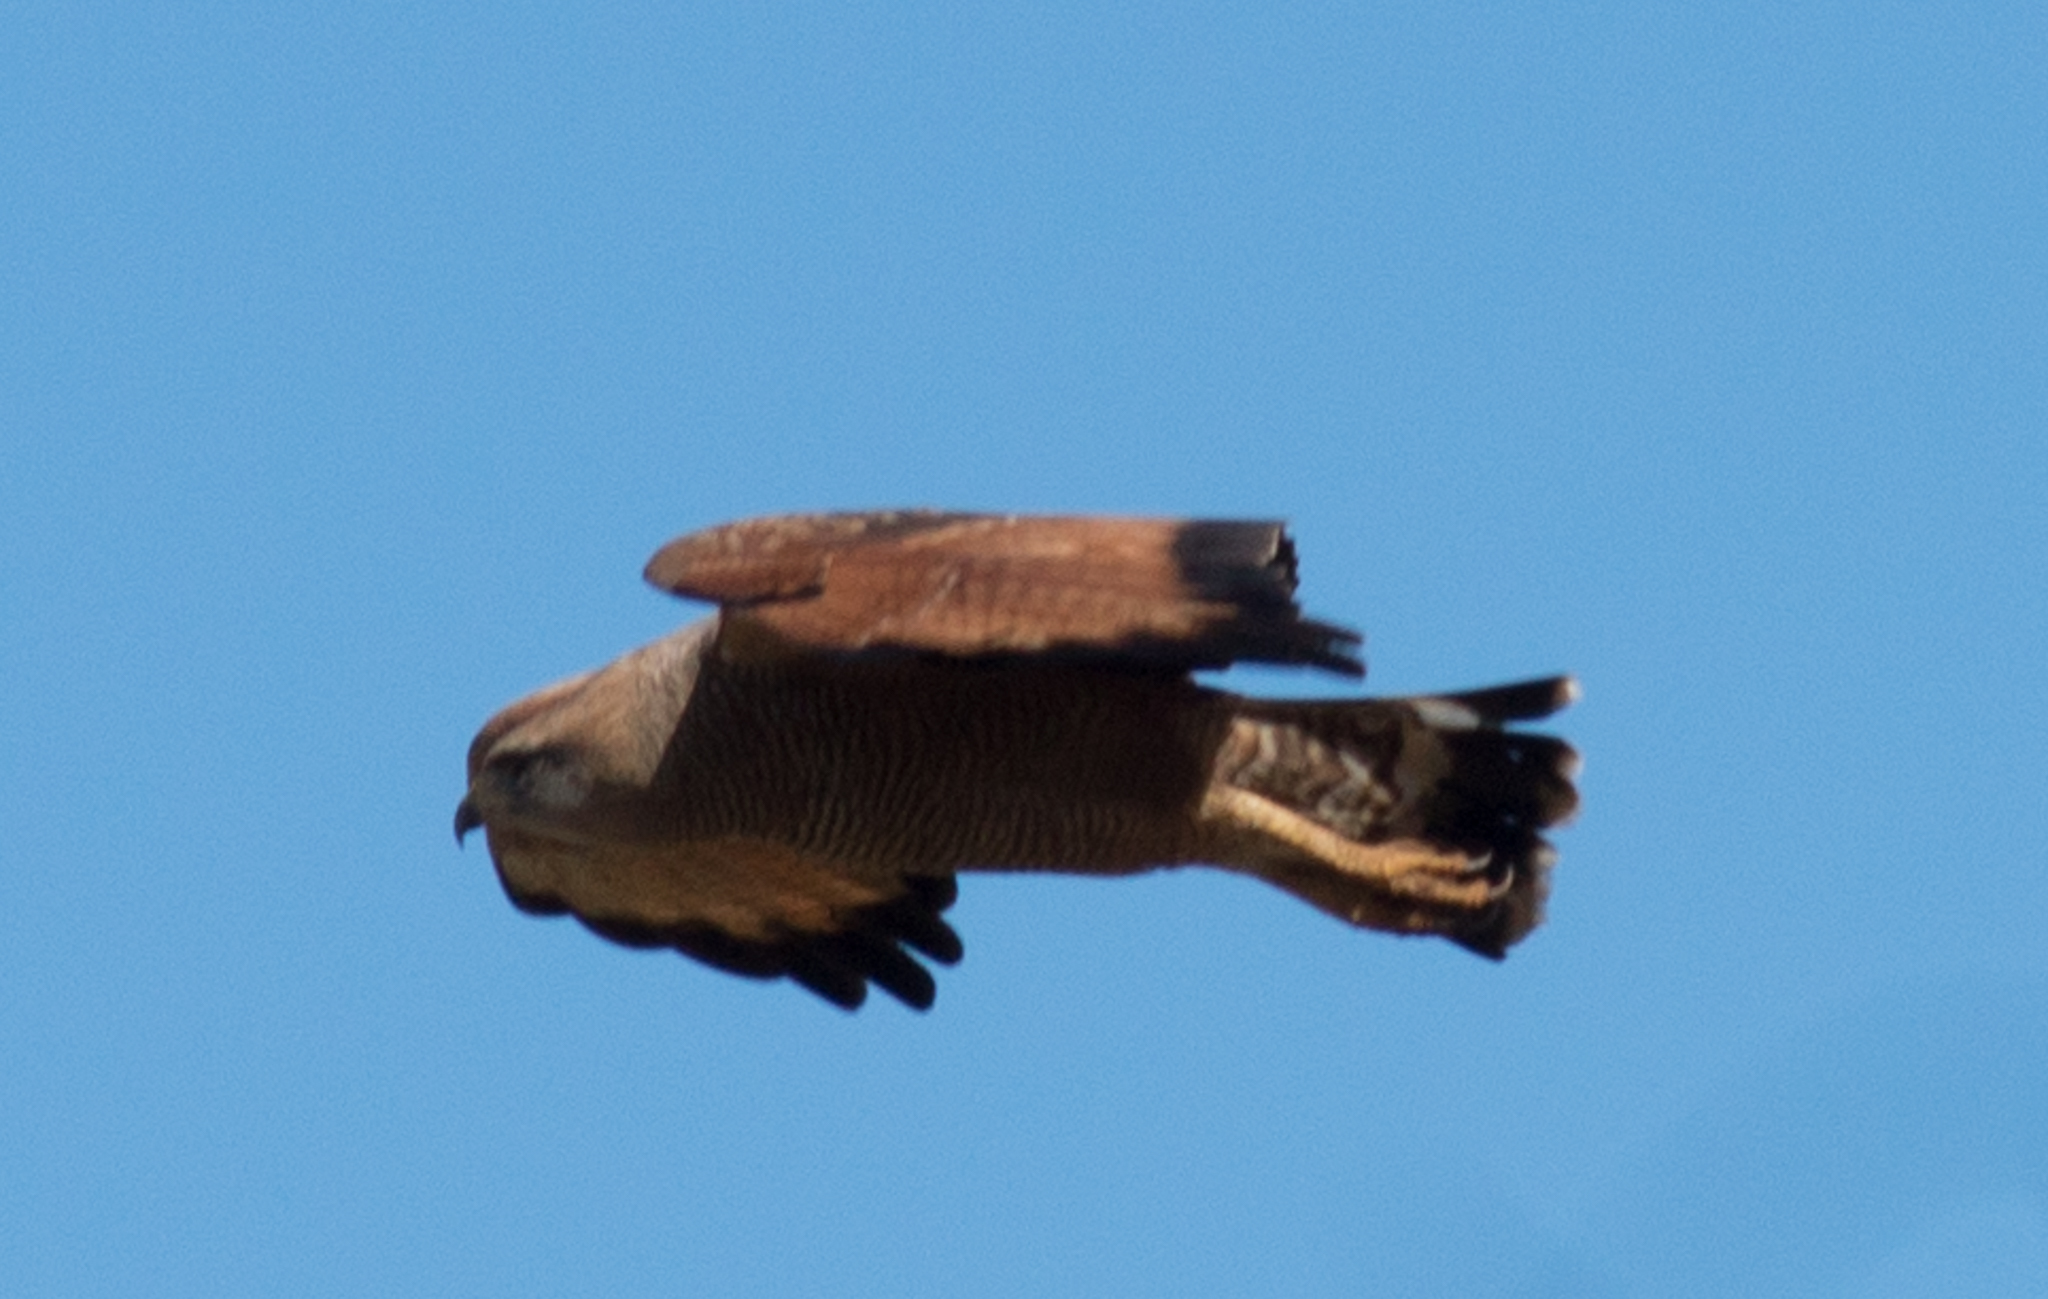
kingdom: Animalia
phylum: Chordata
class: Aves
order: Accipitriformes
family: Accipitridae
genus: Buteogallus
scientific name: Buteogallus meridionalis
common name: Savanna hawk
